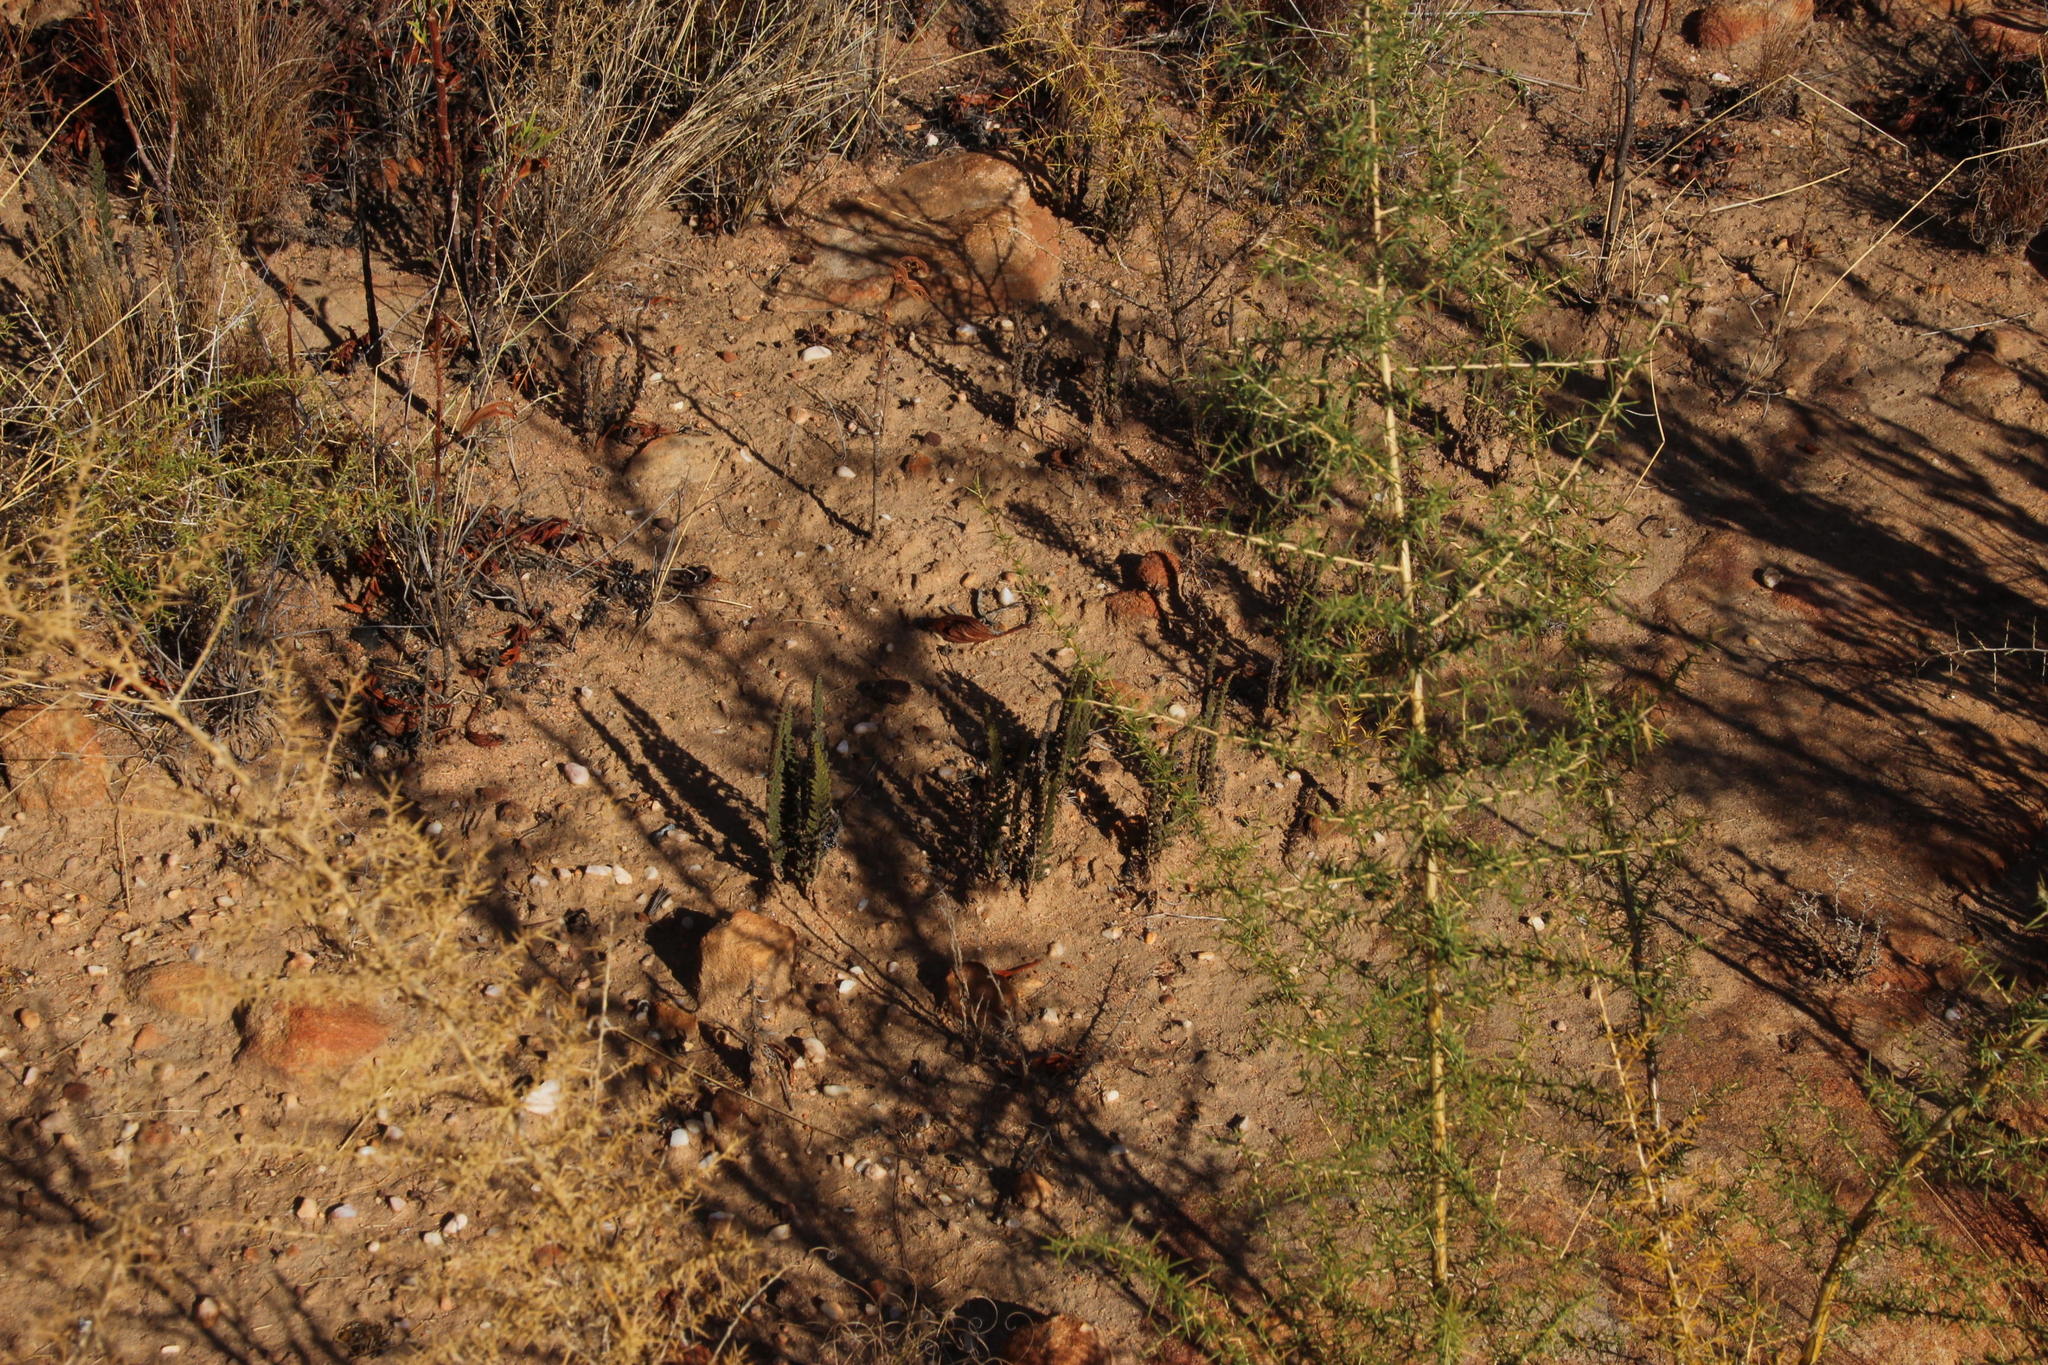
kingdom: Plantae
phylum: Tracheophyta
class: Polypodiopsida
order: Polypodiales
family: Pteridaceae
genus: Cheilanthes
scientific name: Cheilanthes contracta
